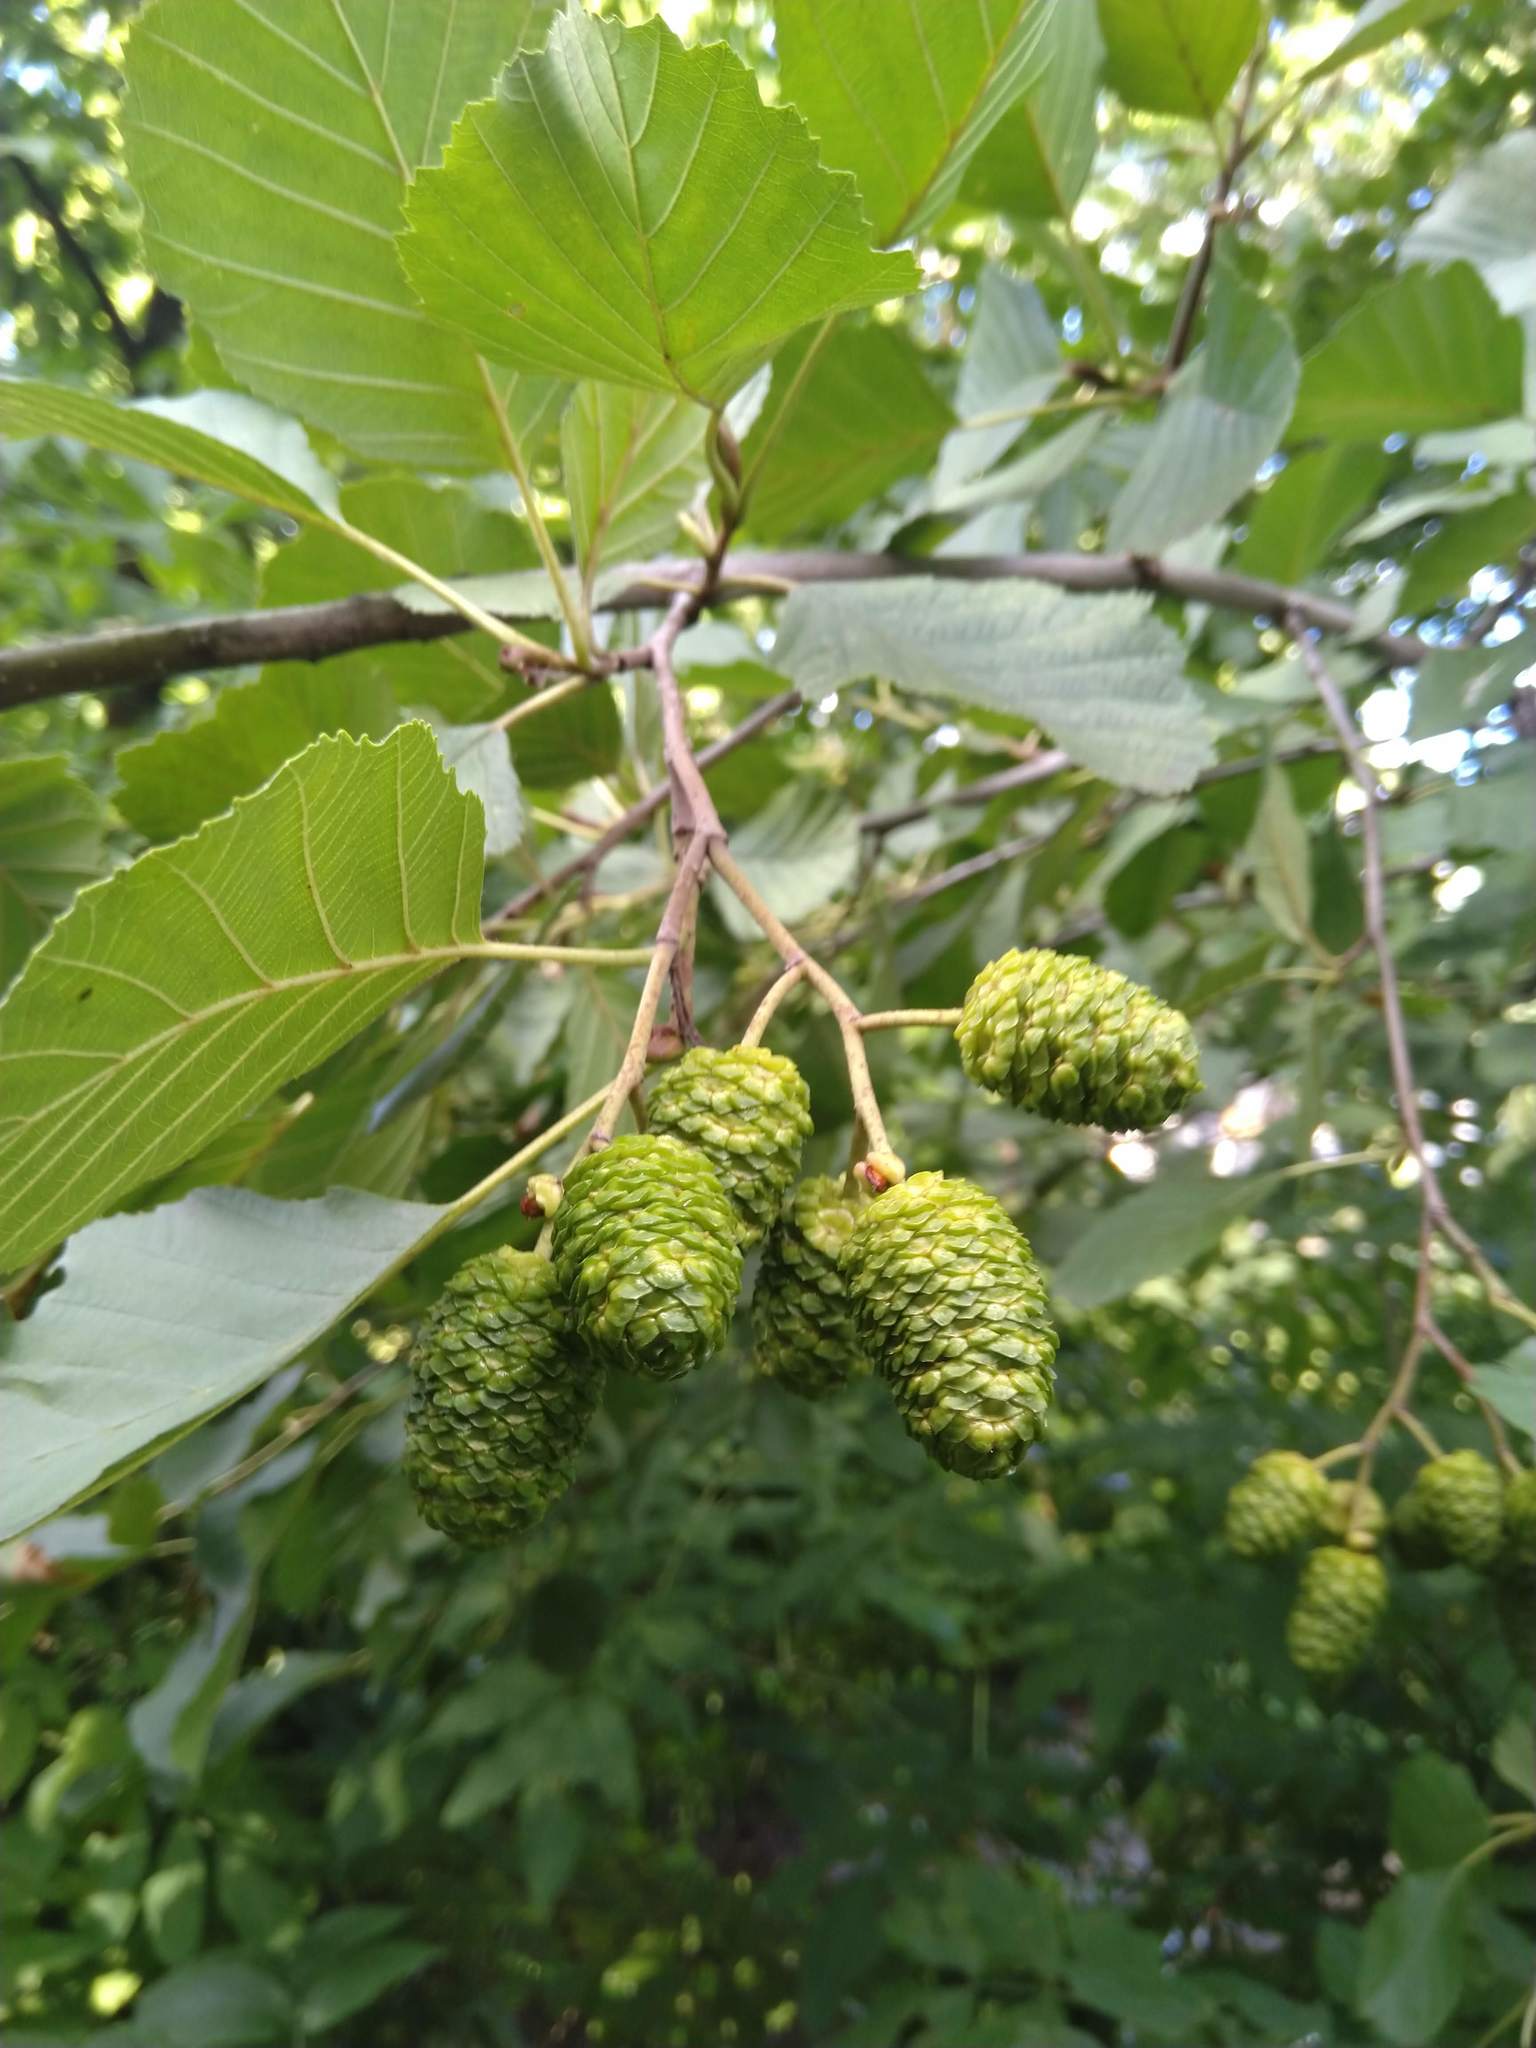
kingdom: Plantae
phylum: Tracheophyta
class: Magnoliopsida
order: Fagales
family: Betulaceae
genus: Alnus
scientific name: Alnus glutinosa
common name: Black alder
